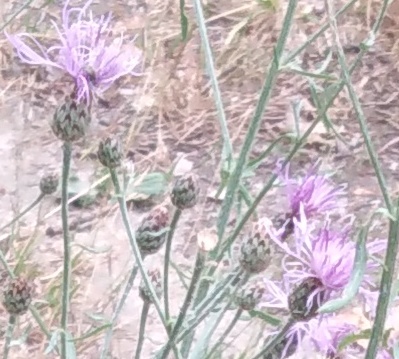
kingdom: Plantae
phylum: Tracheophyta
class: Magnoliopsida
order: Asterales
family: Asteraceae
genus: Centaurea
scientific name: Centaurea stoebe
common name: Spotted knapweed
